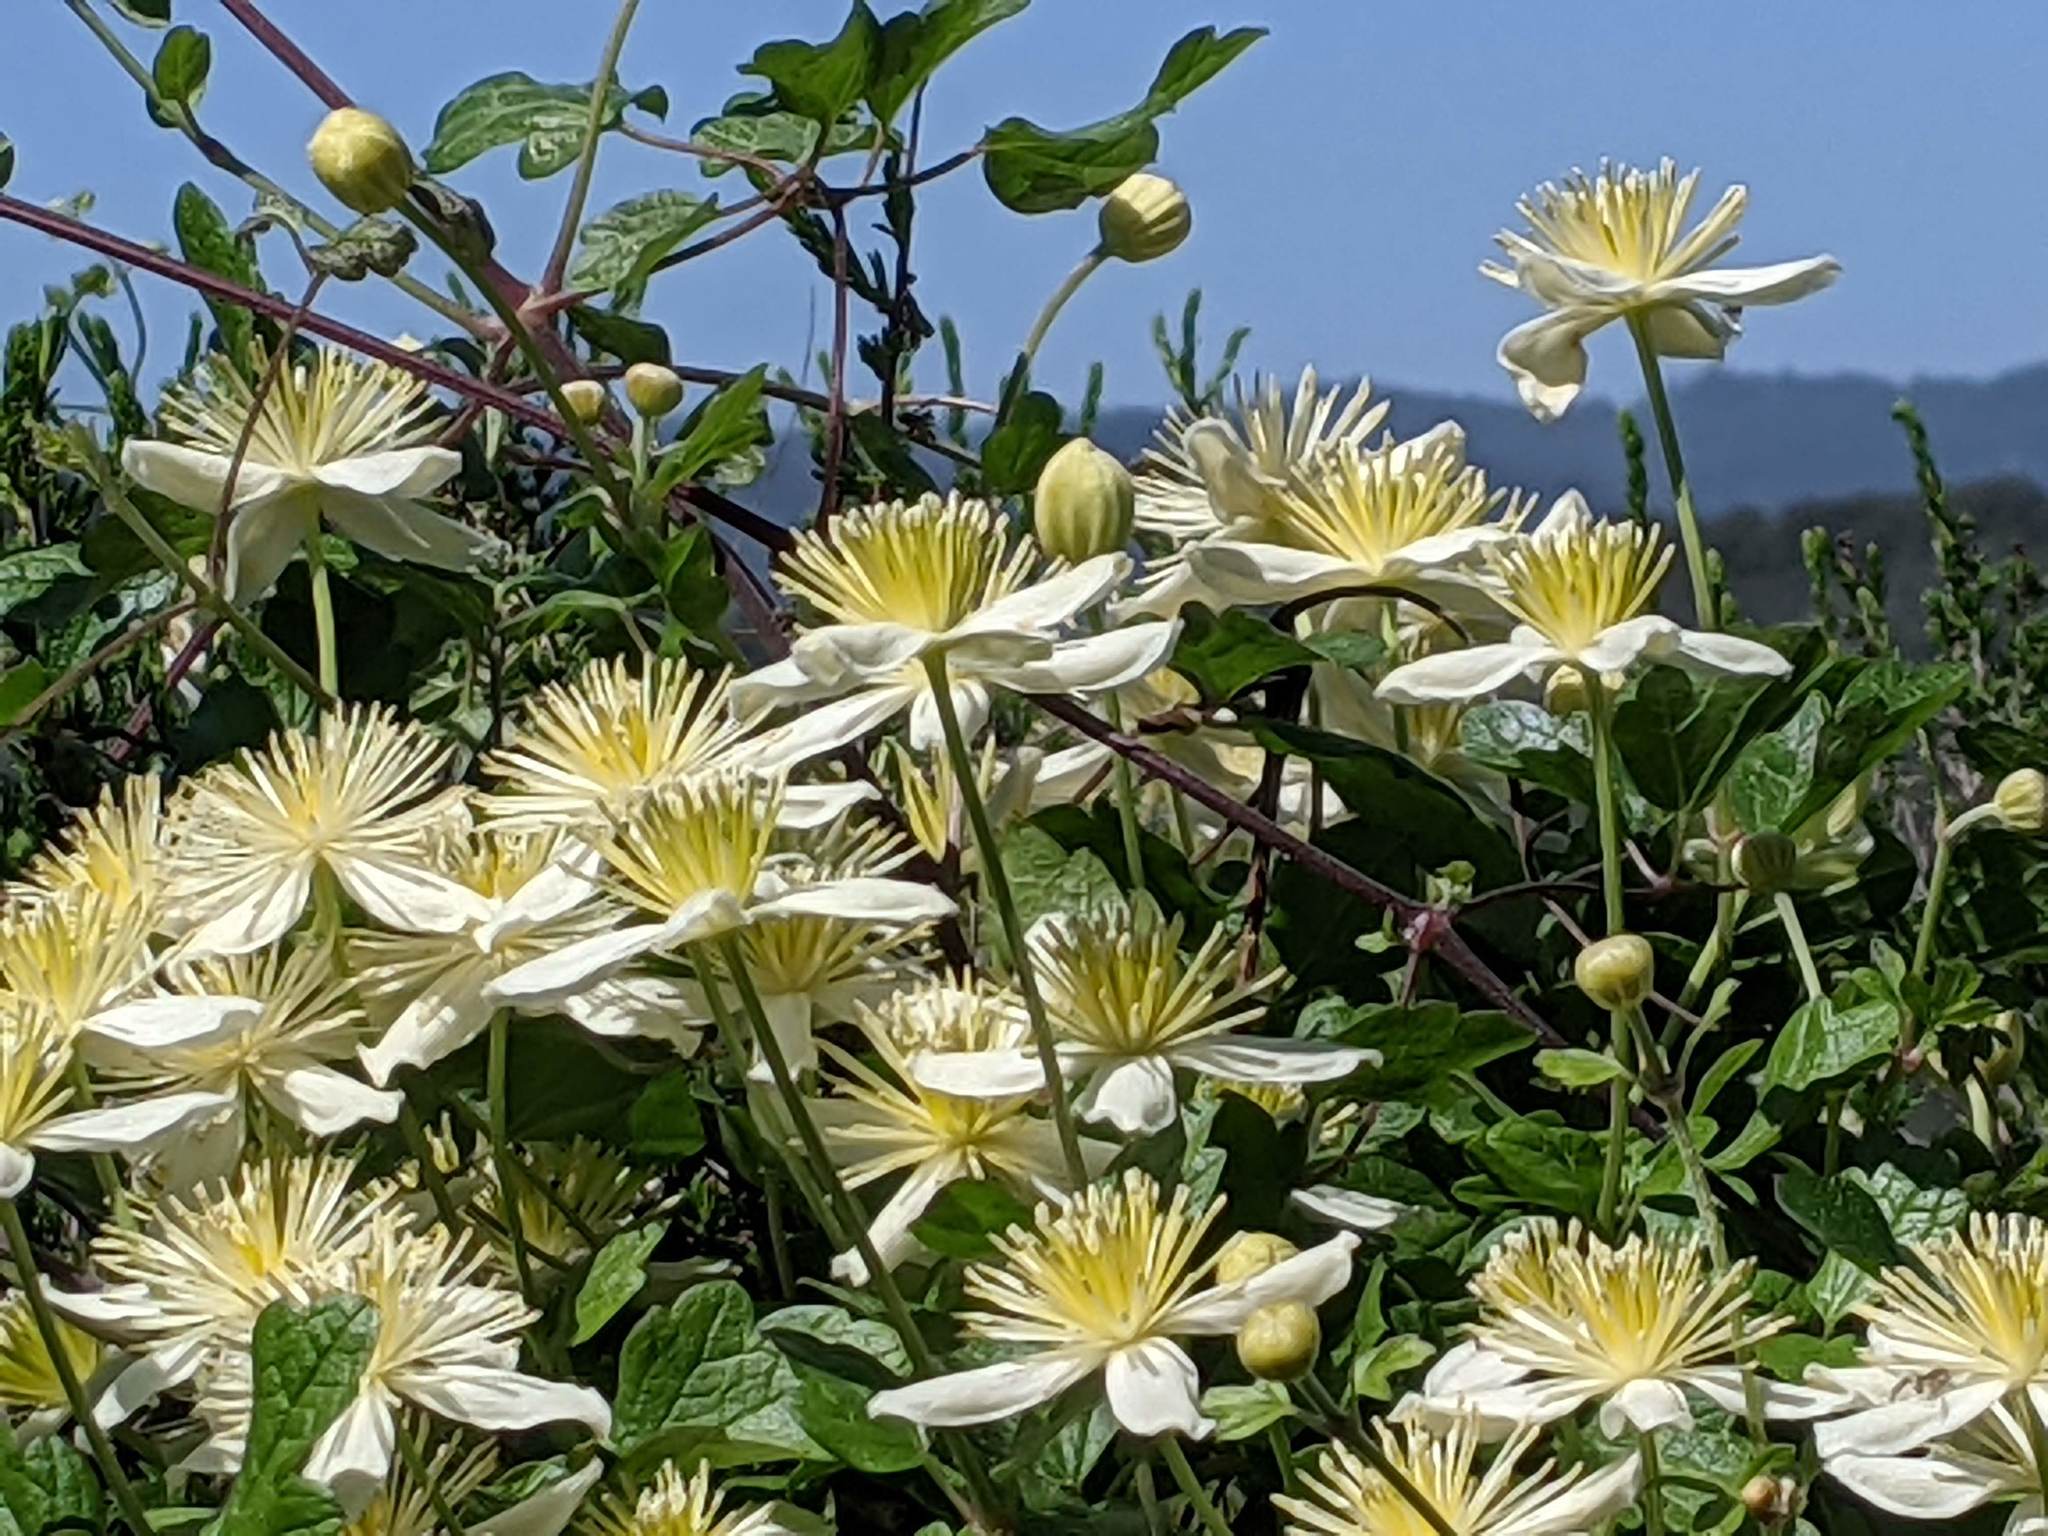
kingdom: Plantae
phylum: Tracheophyta
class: Magnoliopsida
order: Ranunculales
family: Ranunculaceae
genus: Clematis
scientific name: Clematis lasiantha
